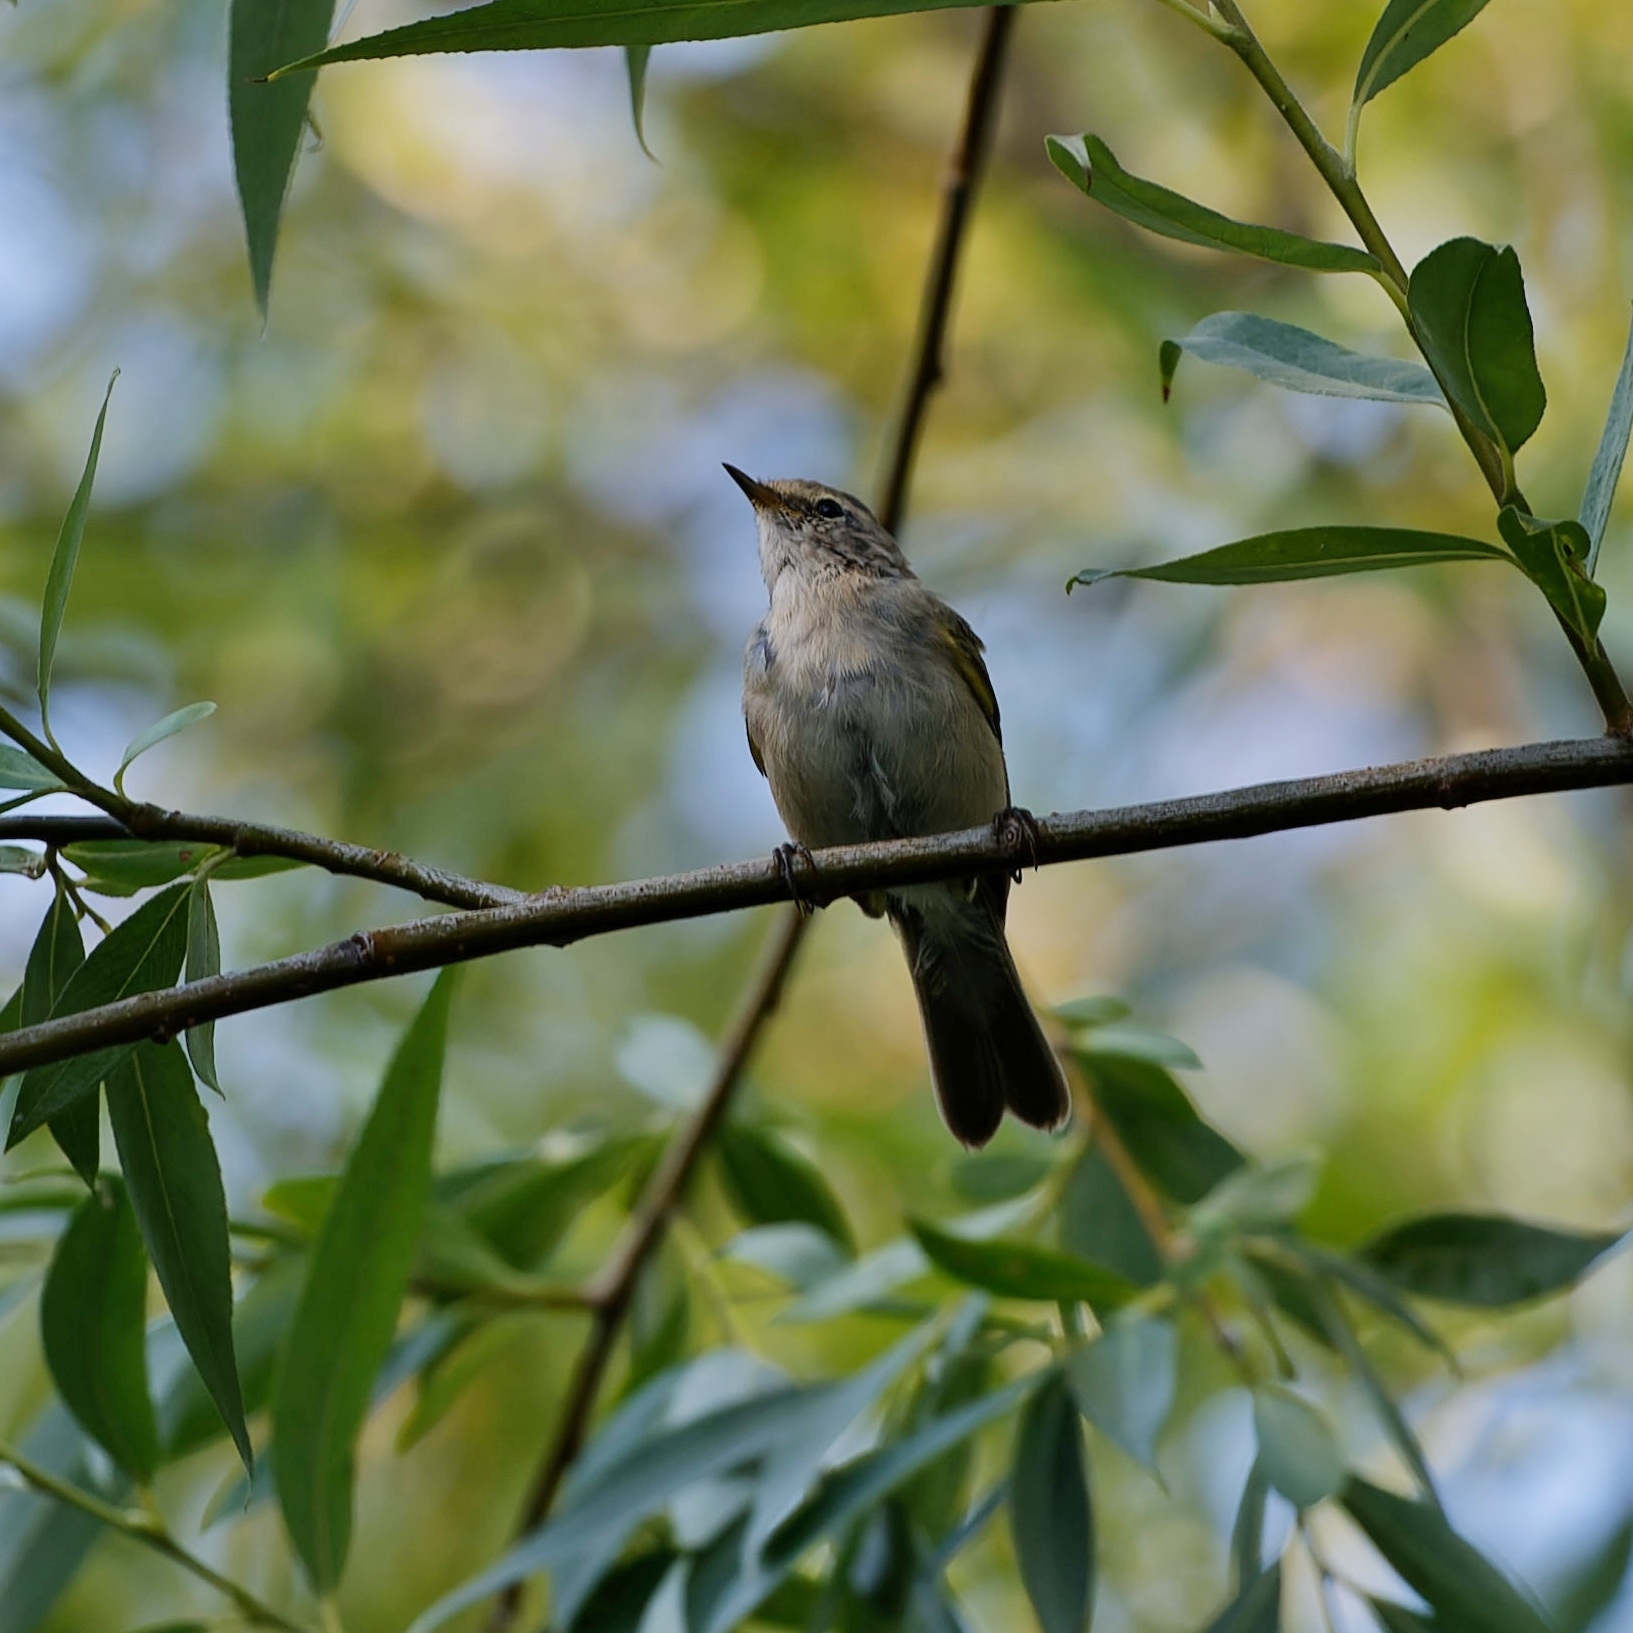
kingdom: Animalia
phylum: Chordata
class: Aves
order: Passeriformes
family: Phylloscopidae
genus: Phylloscopus
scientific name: Phylloscopus collybita
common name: Common chiffchaff
